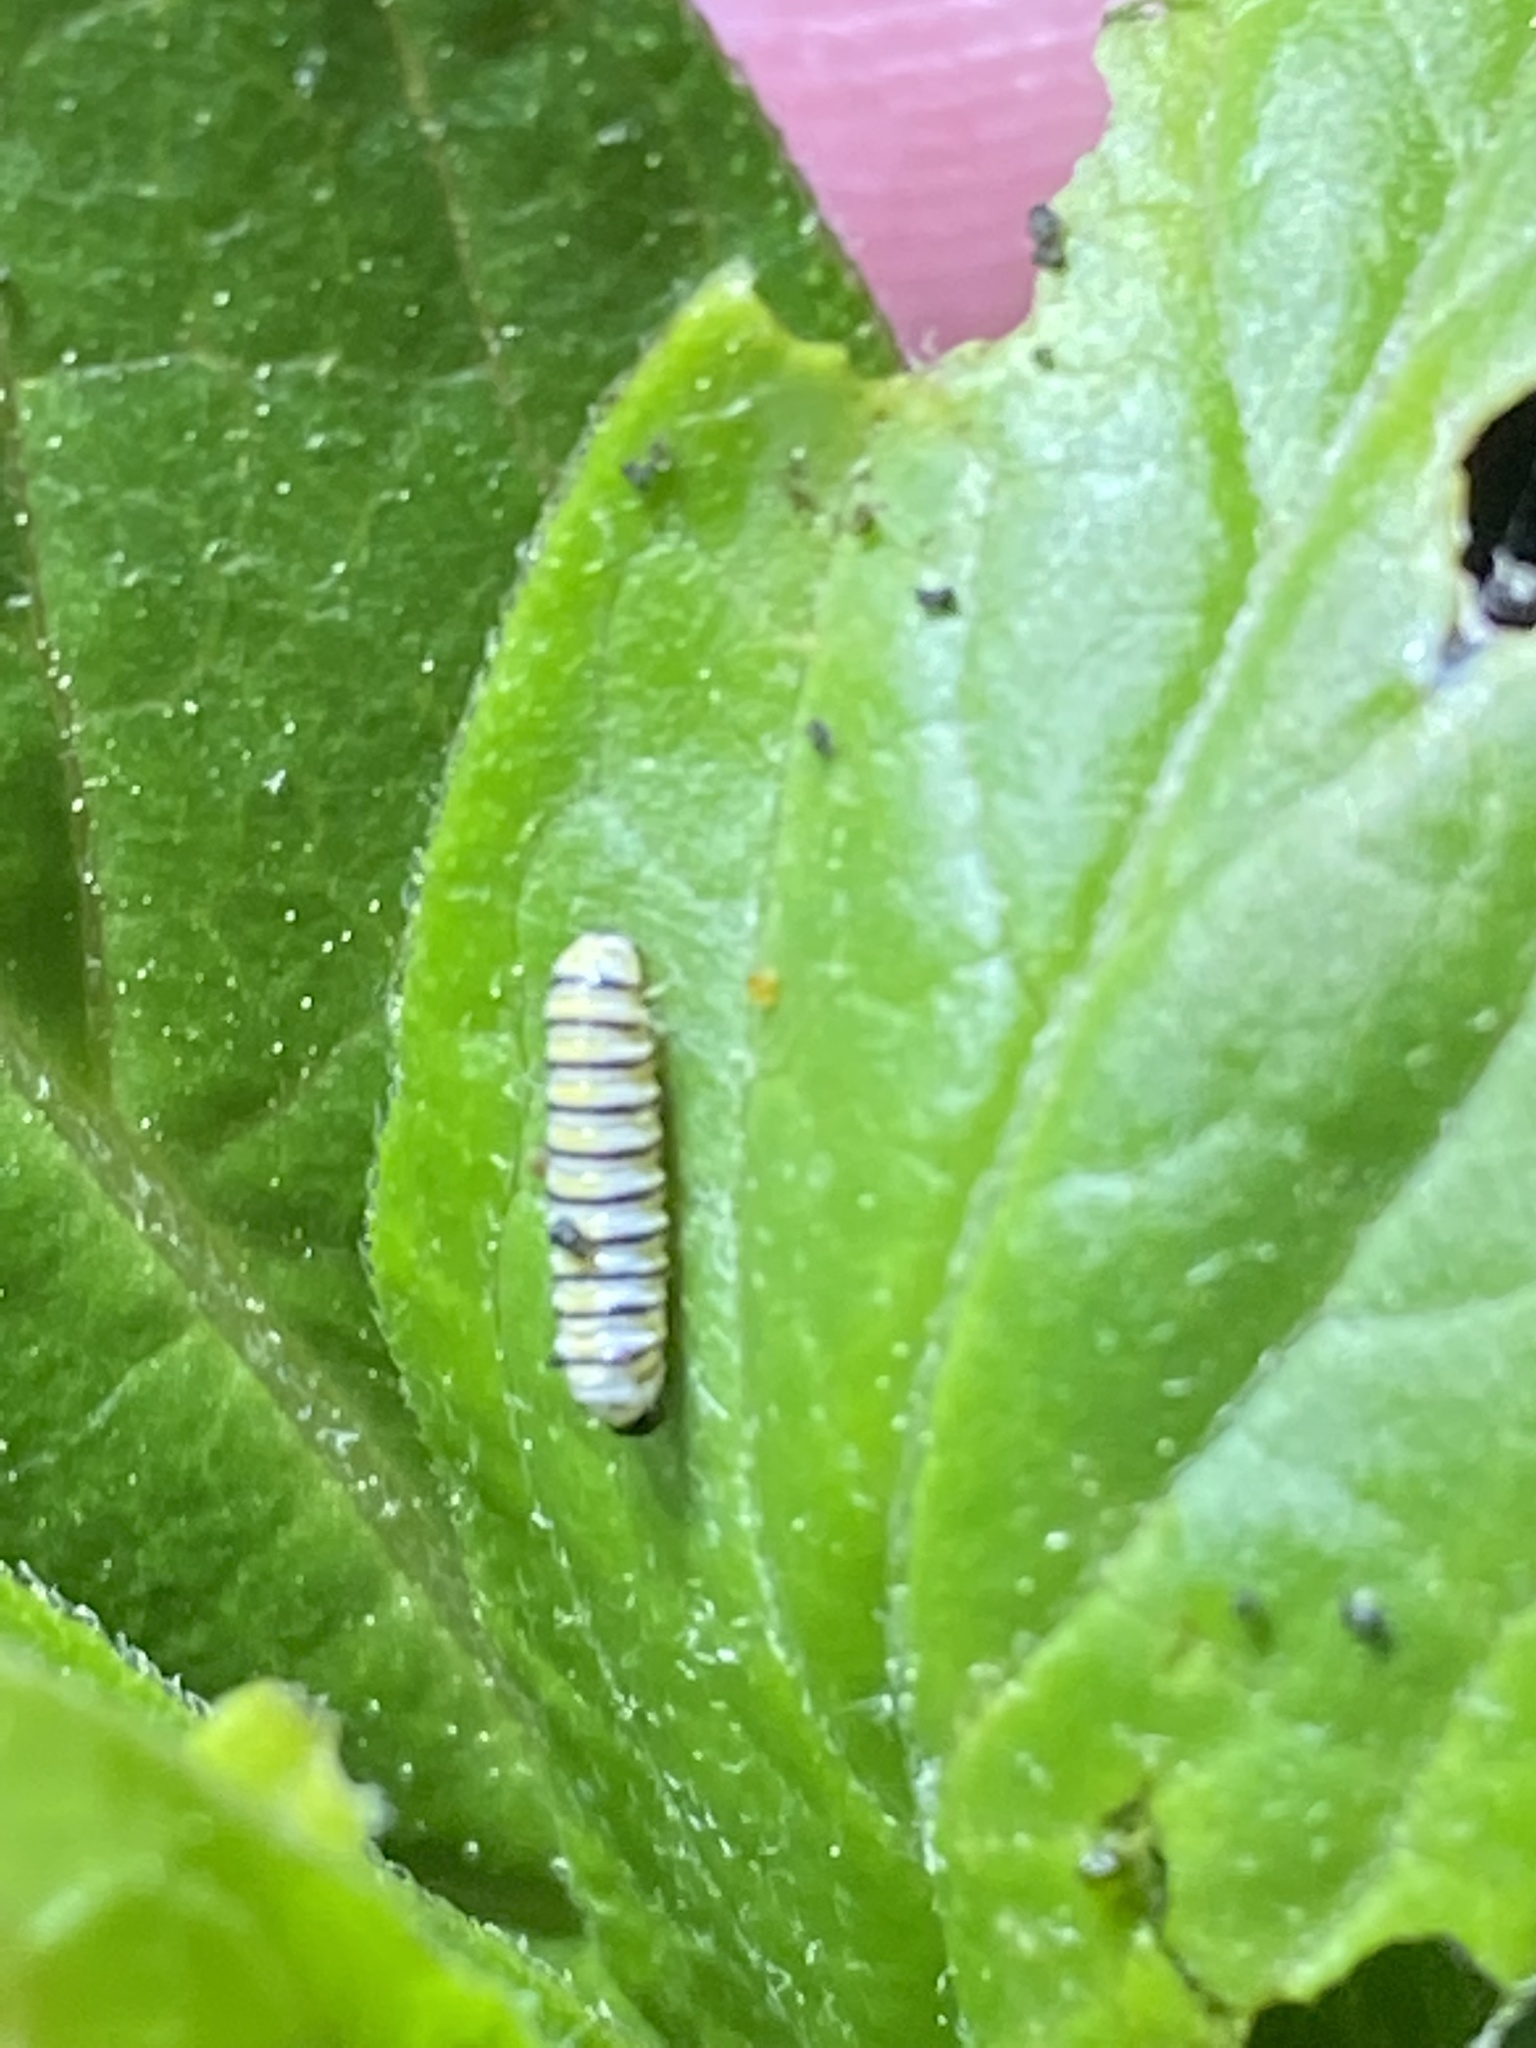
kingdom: Animalia
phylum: Arthropoda
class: Insecta
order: Lepidoptera
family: Nymphalidae
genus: Danaus
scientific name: Danaus plexippus
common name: Monarch
